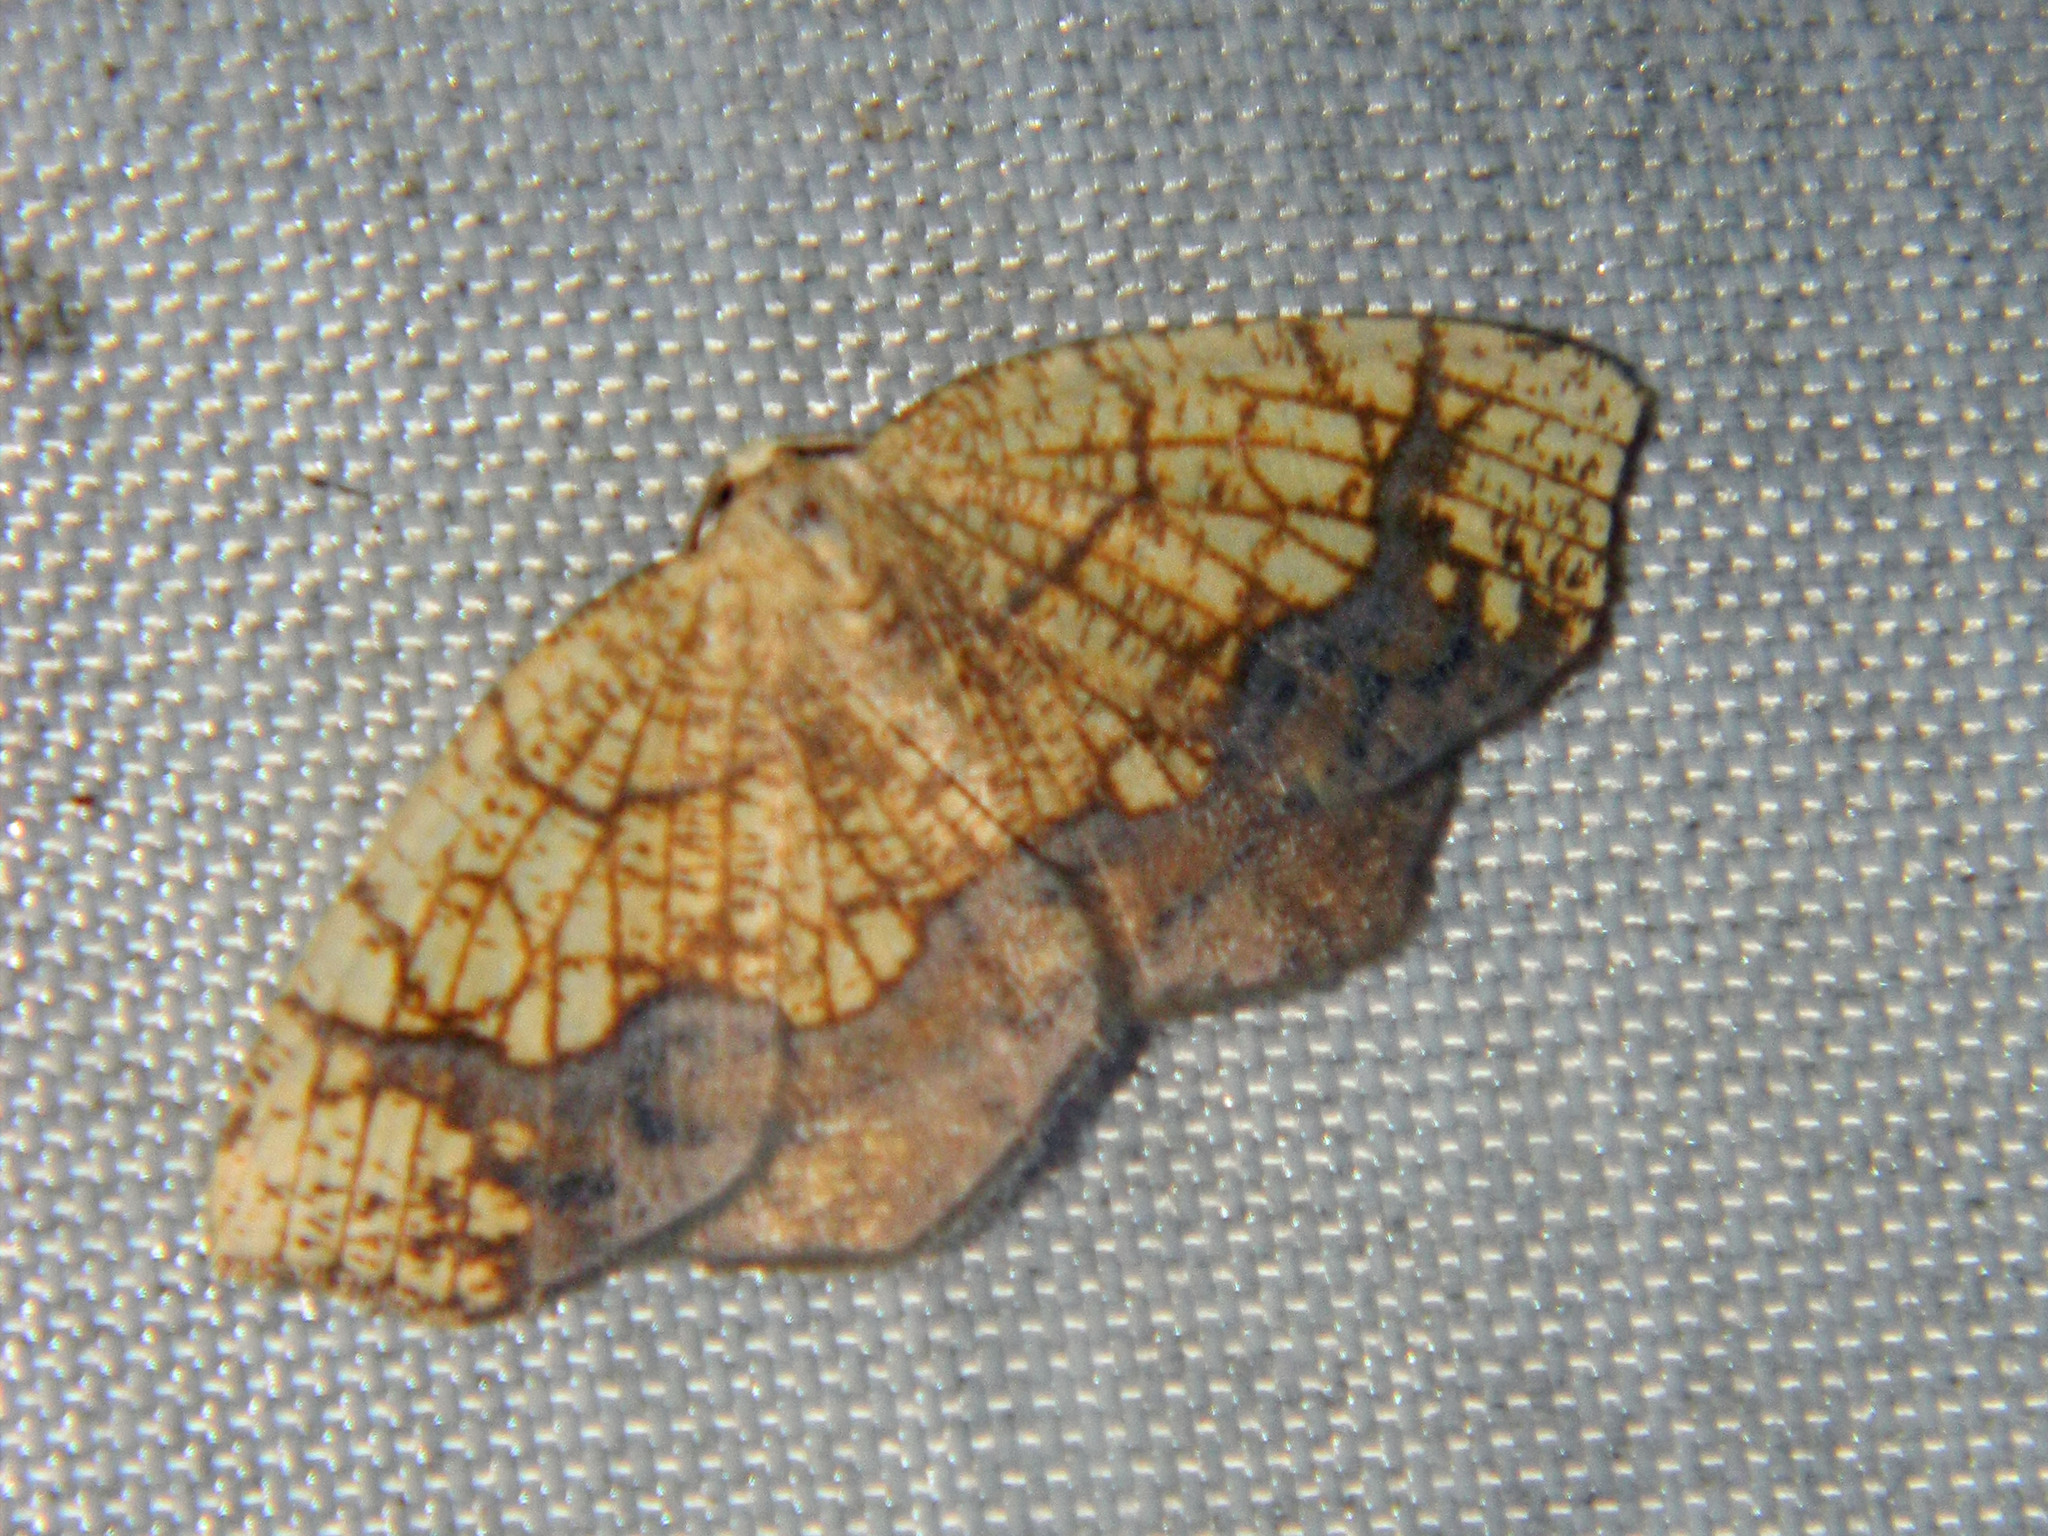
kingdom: Animalia
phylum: Arthropoda
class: Insecta
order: Lepidoptera
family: Geometridae
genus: Nematocampa
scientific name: Nematocampa resistaria
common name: Horned spanworm moth
